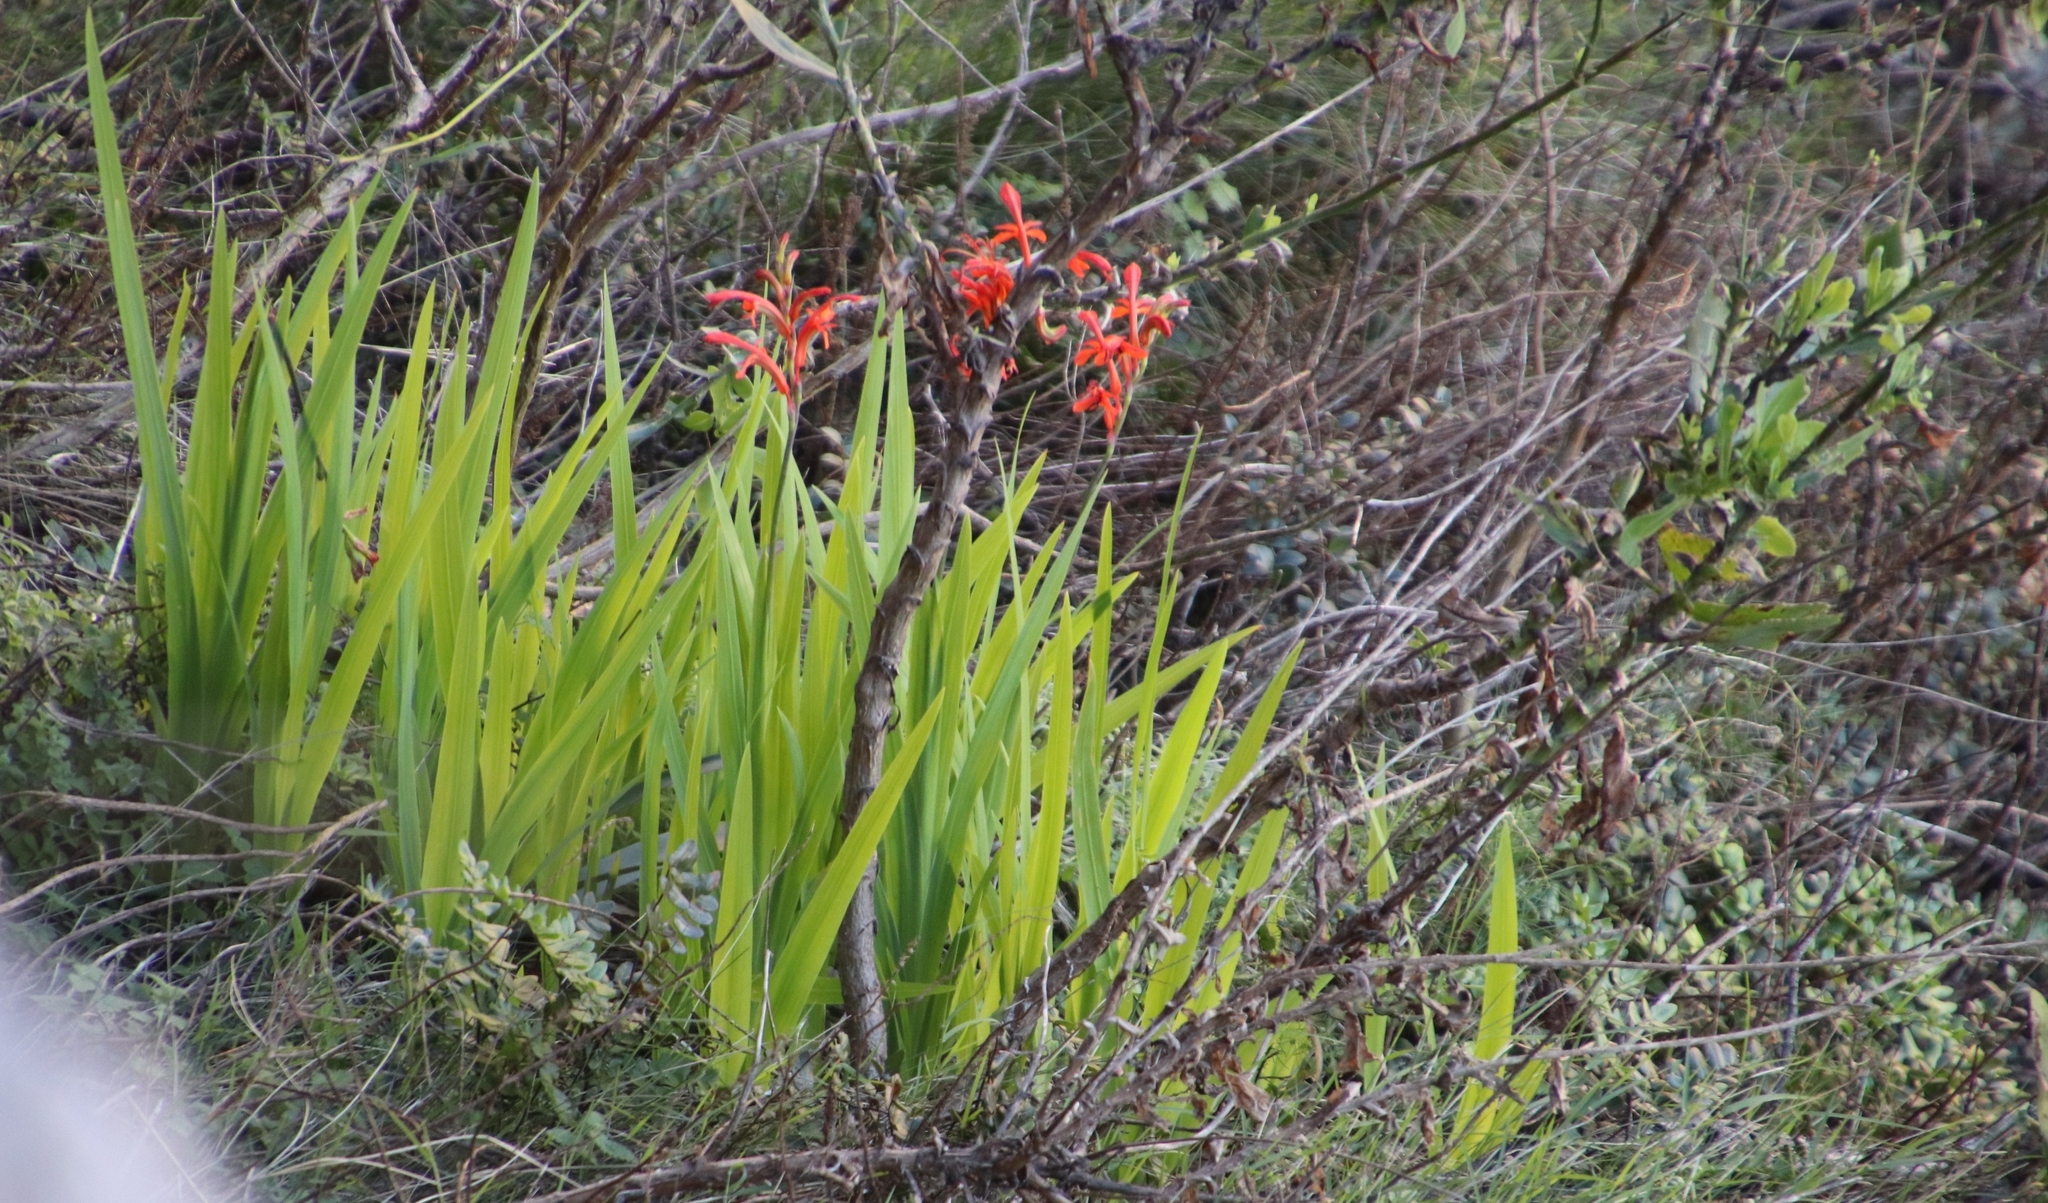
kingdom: Plantae
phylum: Tracheophyta
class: Liliopsida
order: Asparagales
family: Iridaceae
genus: Chasmanthe
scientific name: Chasmanthe aethiopica
